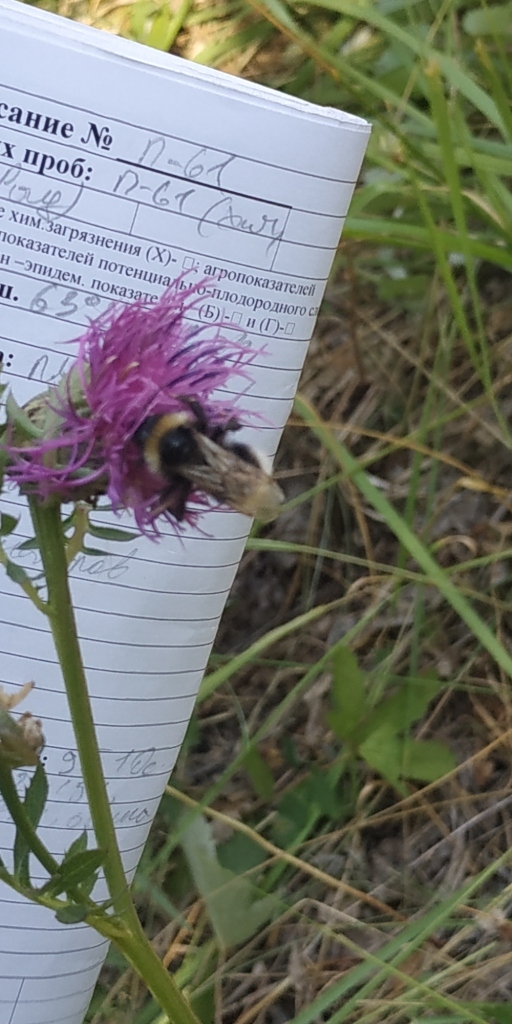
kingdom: Animalia
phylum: Arthropoda
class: Insecta
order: Hymenoptera
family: Apidae
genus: Bombus
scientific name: Bombus
